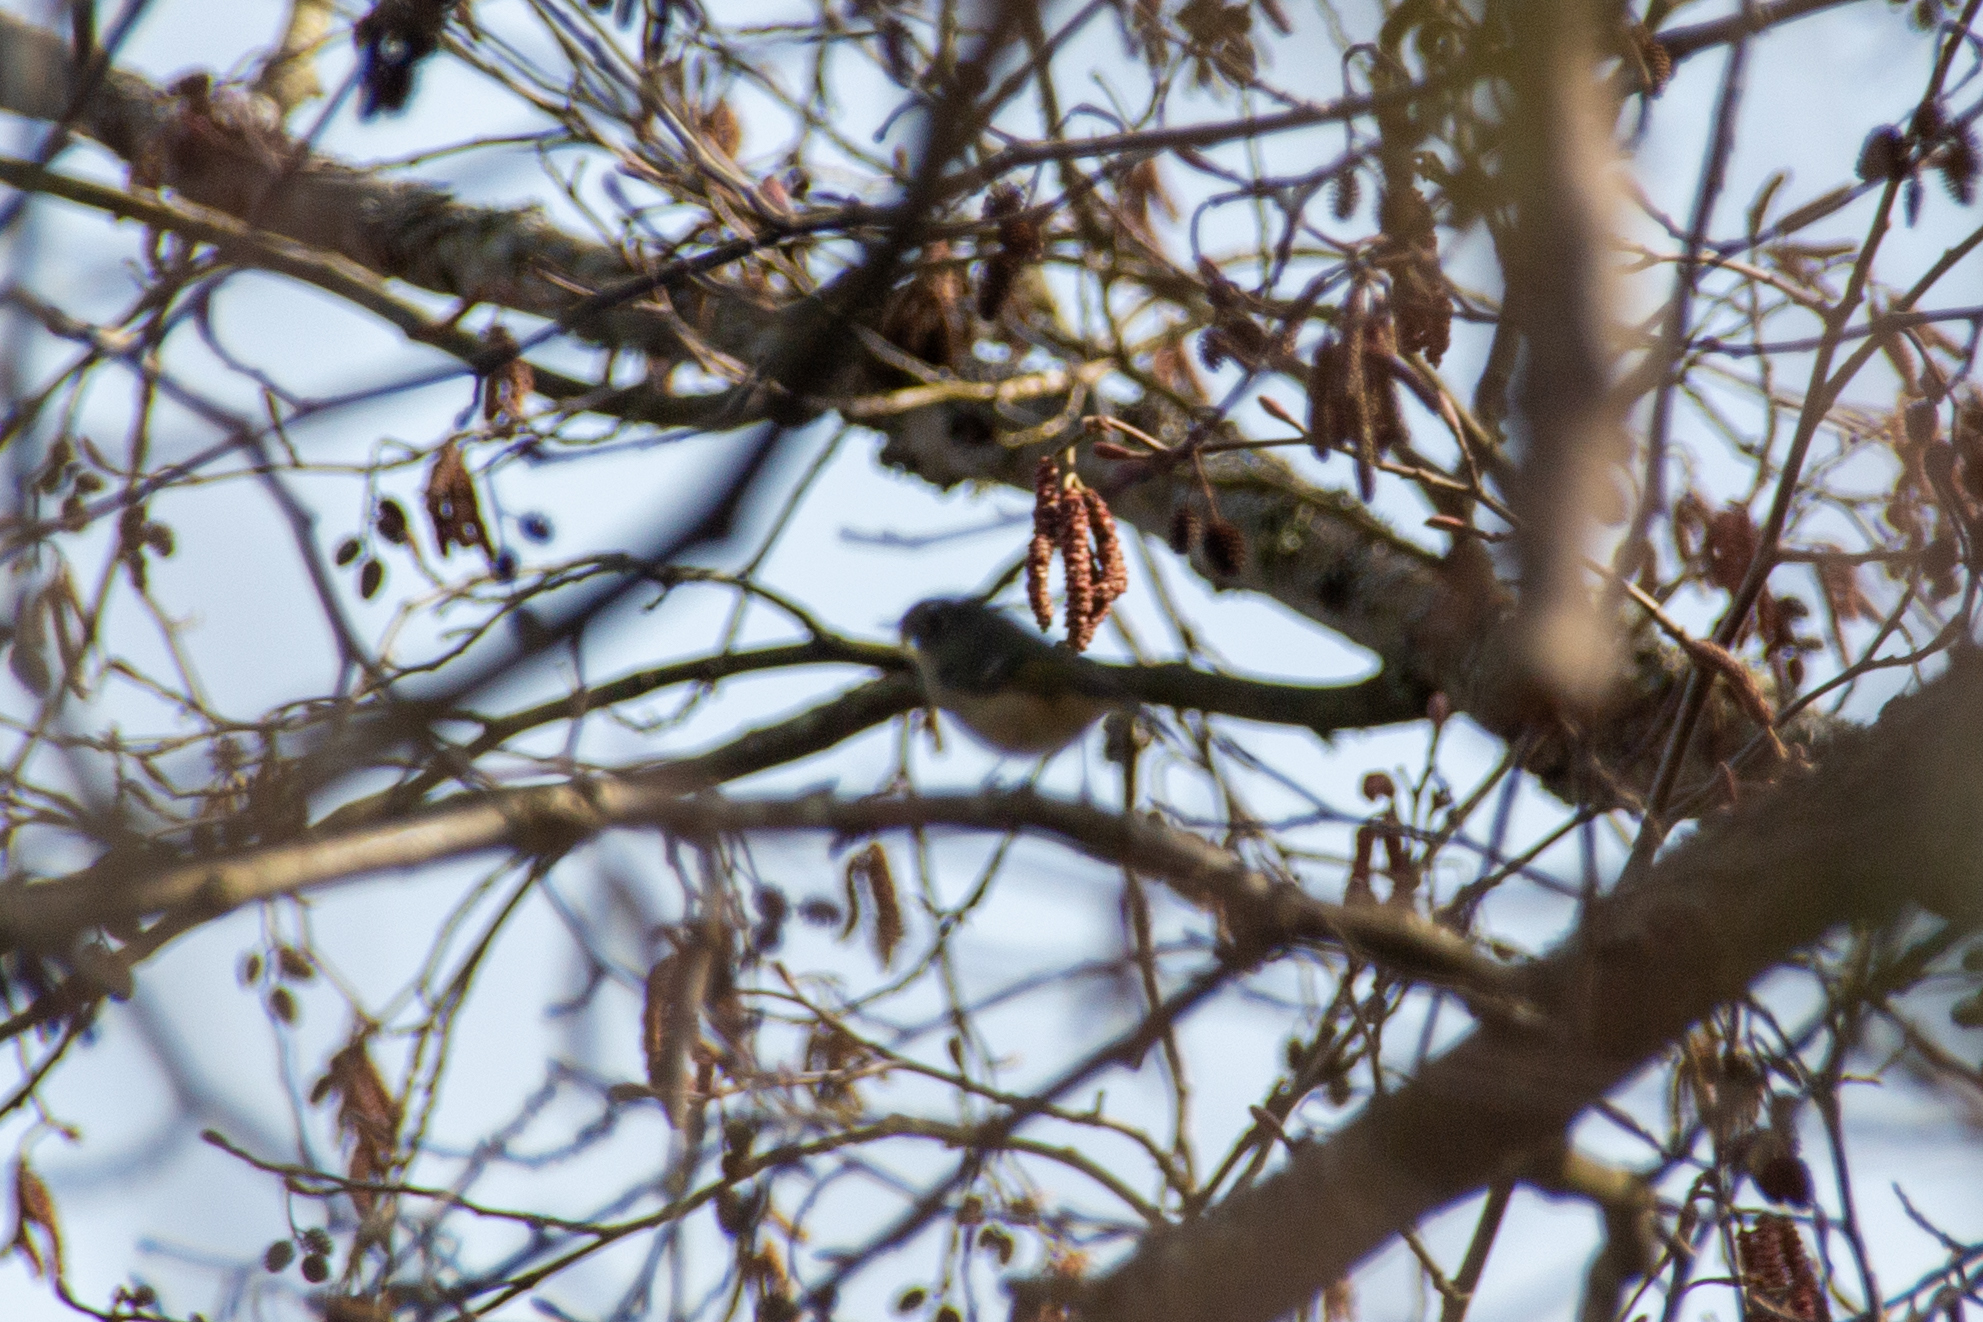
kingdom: Animalia
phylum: Chordata
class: Aves
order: Passeriformes
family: Regulidae
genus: Regulus
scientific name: Regulus calendula
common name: Ruby-crowned kinglet
